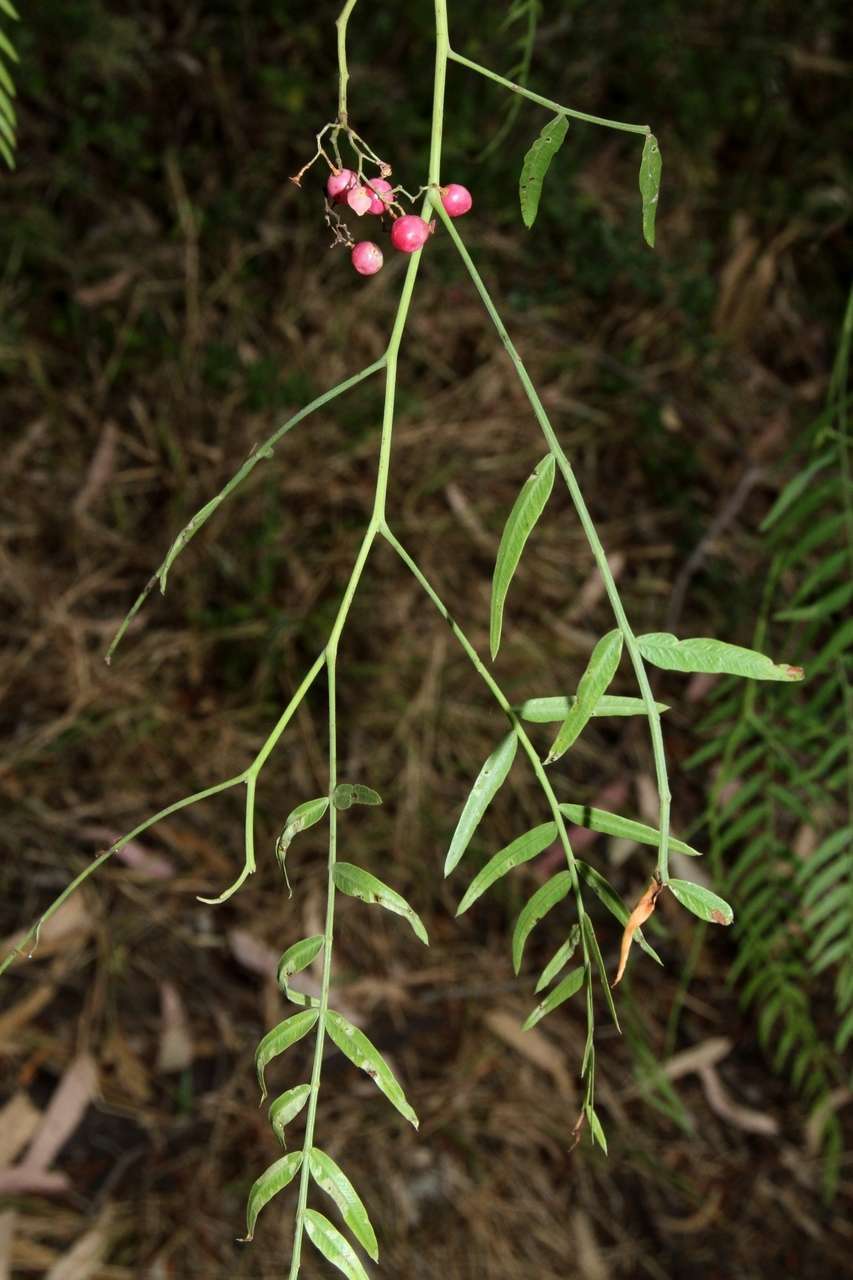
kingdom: Plantae
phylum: Tracheophyta
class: Magnoliopsida
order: Sapindales
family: Anacardiaceae
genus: Schinus
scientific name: Schinus molle
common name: Peruvian peppertree
